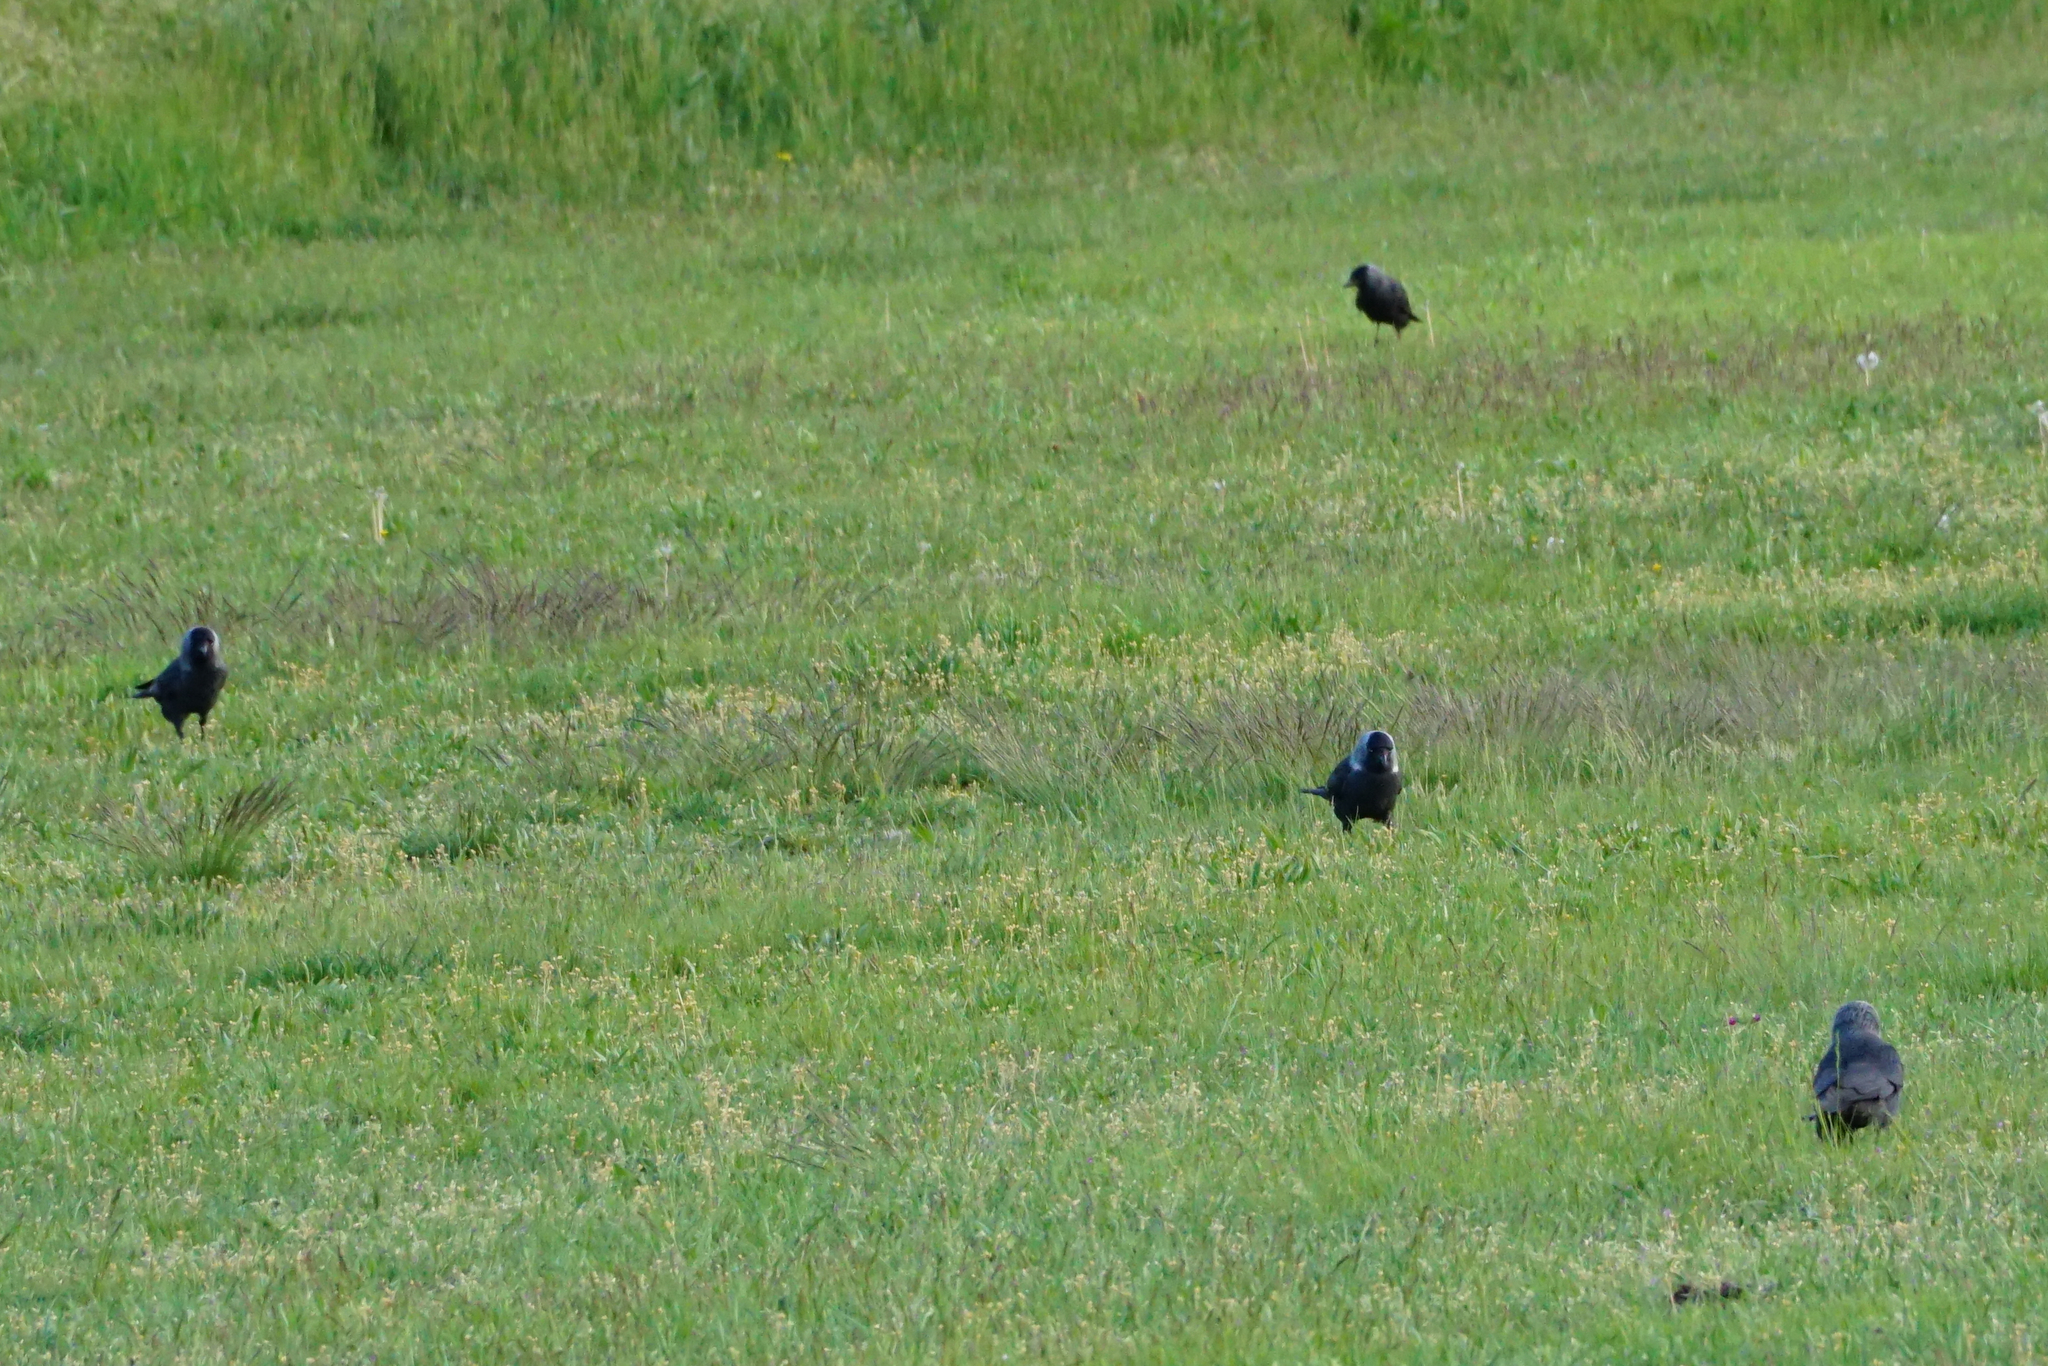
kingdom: Animalia
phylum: Chordata
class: Aves
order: Passeriformes
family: Corvidae
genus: Coloeus
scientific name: Coloeus monedula
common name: Western jackdaw
